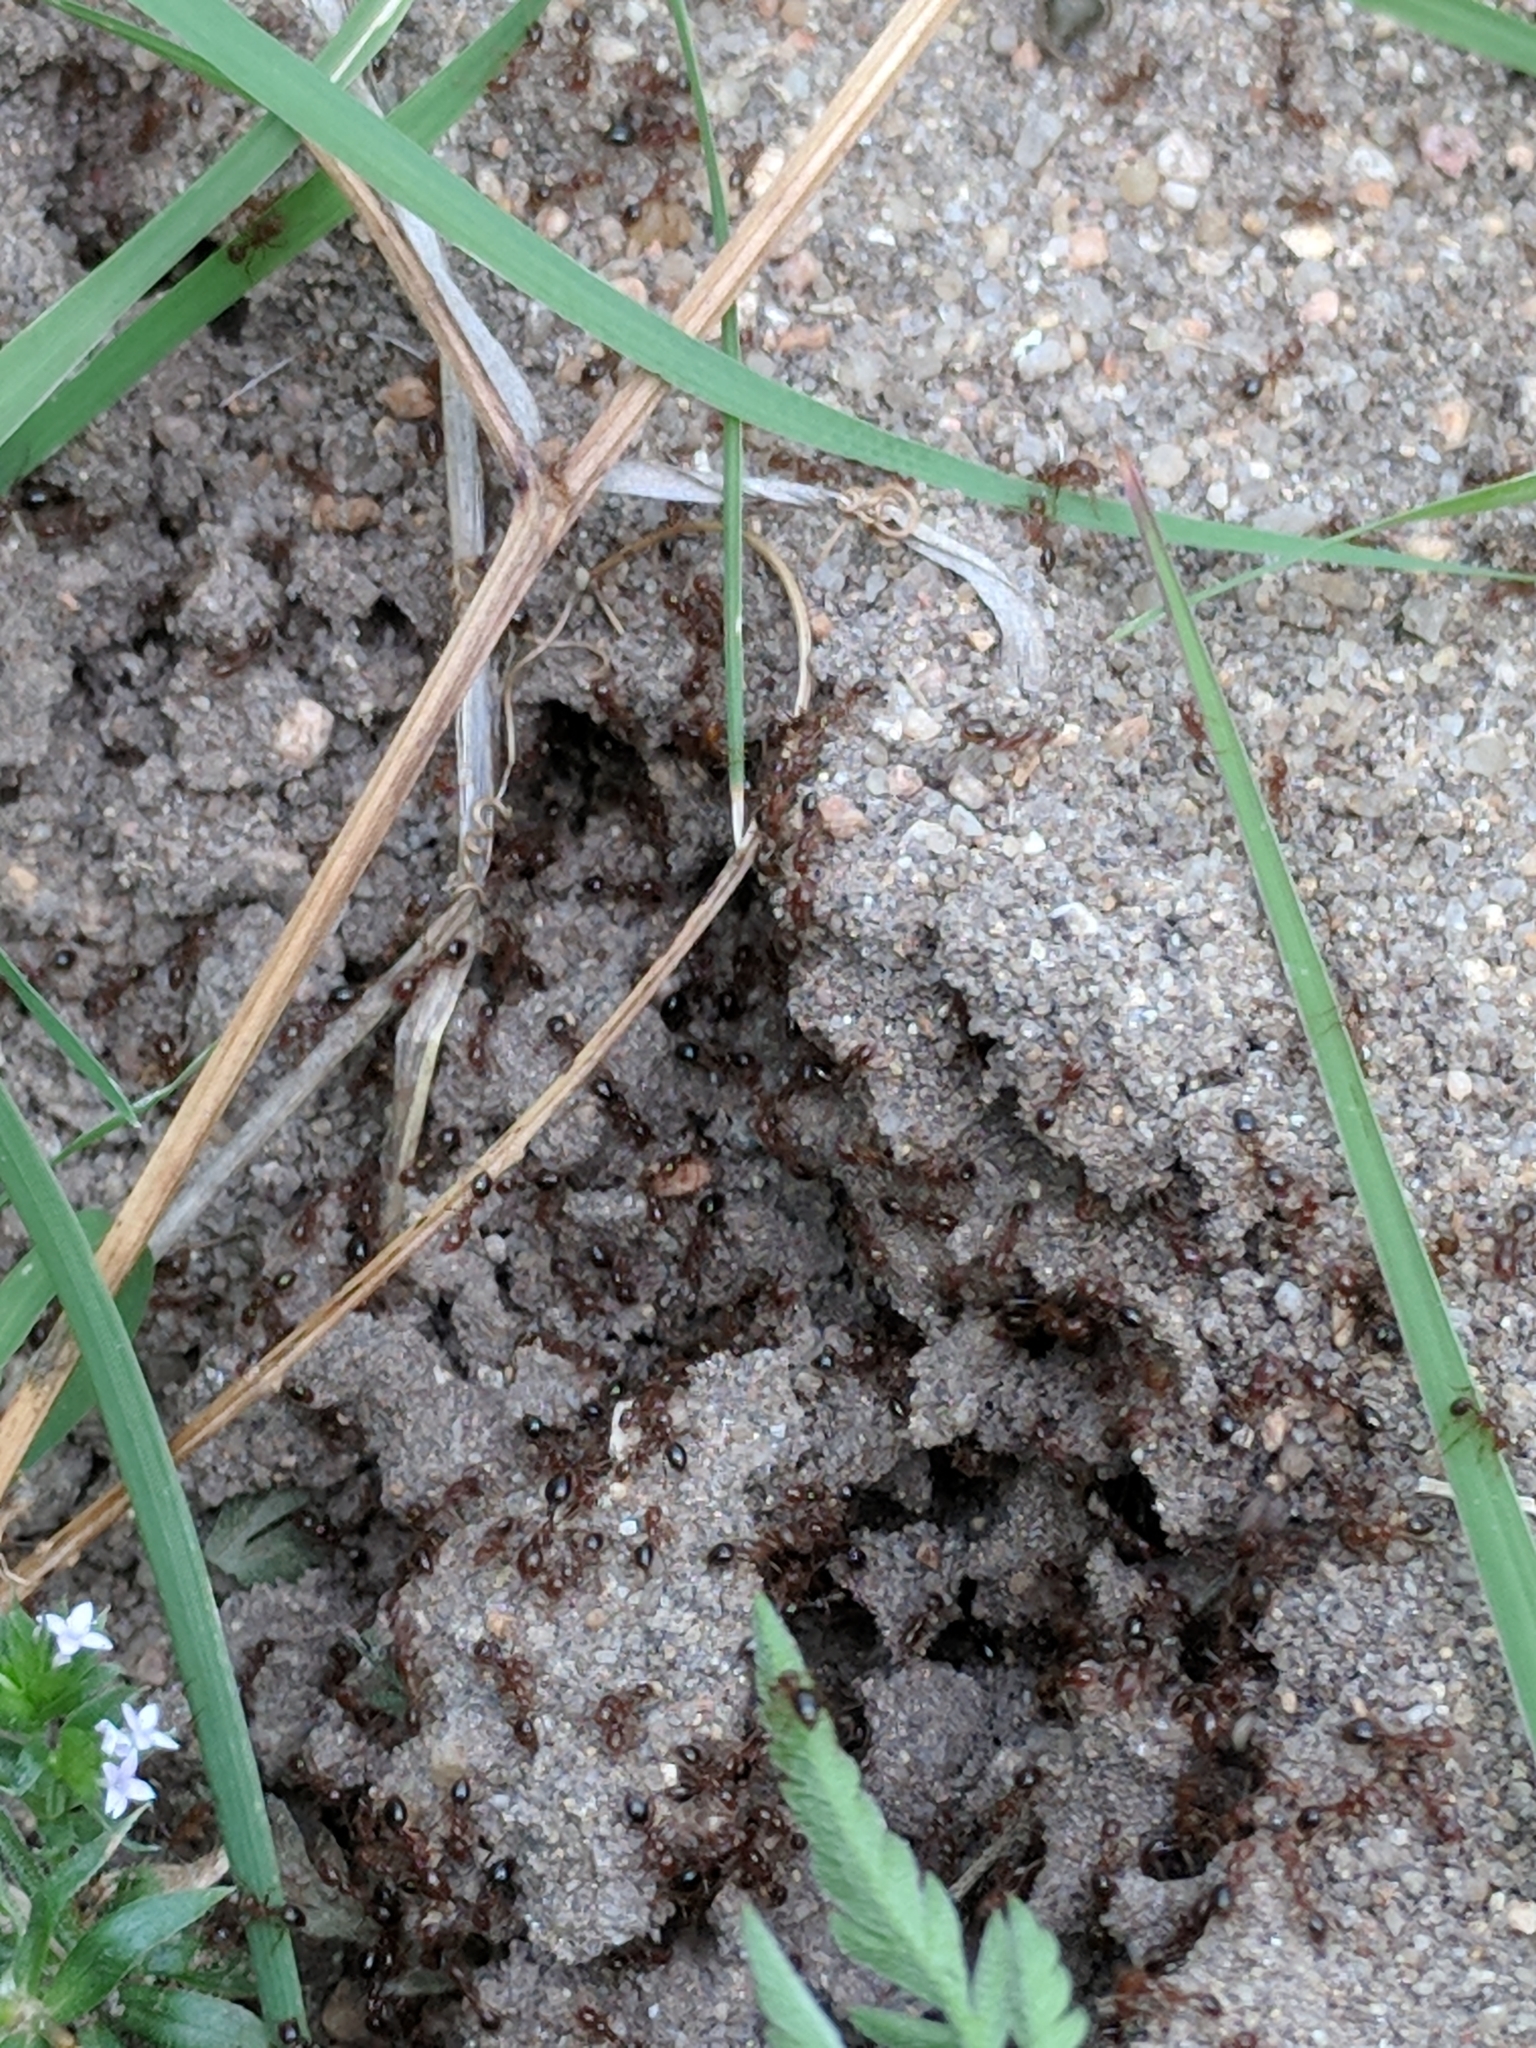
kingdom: Animalia
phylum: Arthropoda
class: Insecta
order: Hymenoptera
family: Formicidae
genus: Solenopsis
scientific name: Solenopsis invicta
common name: Red imported fire ant
